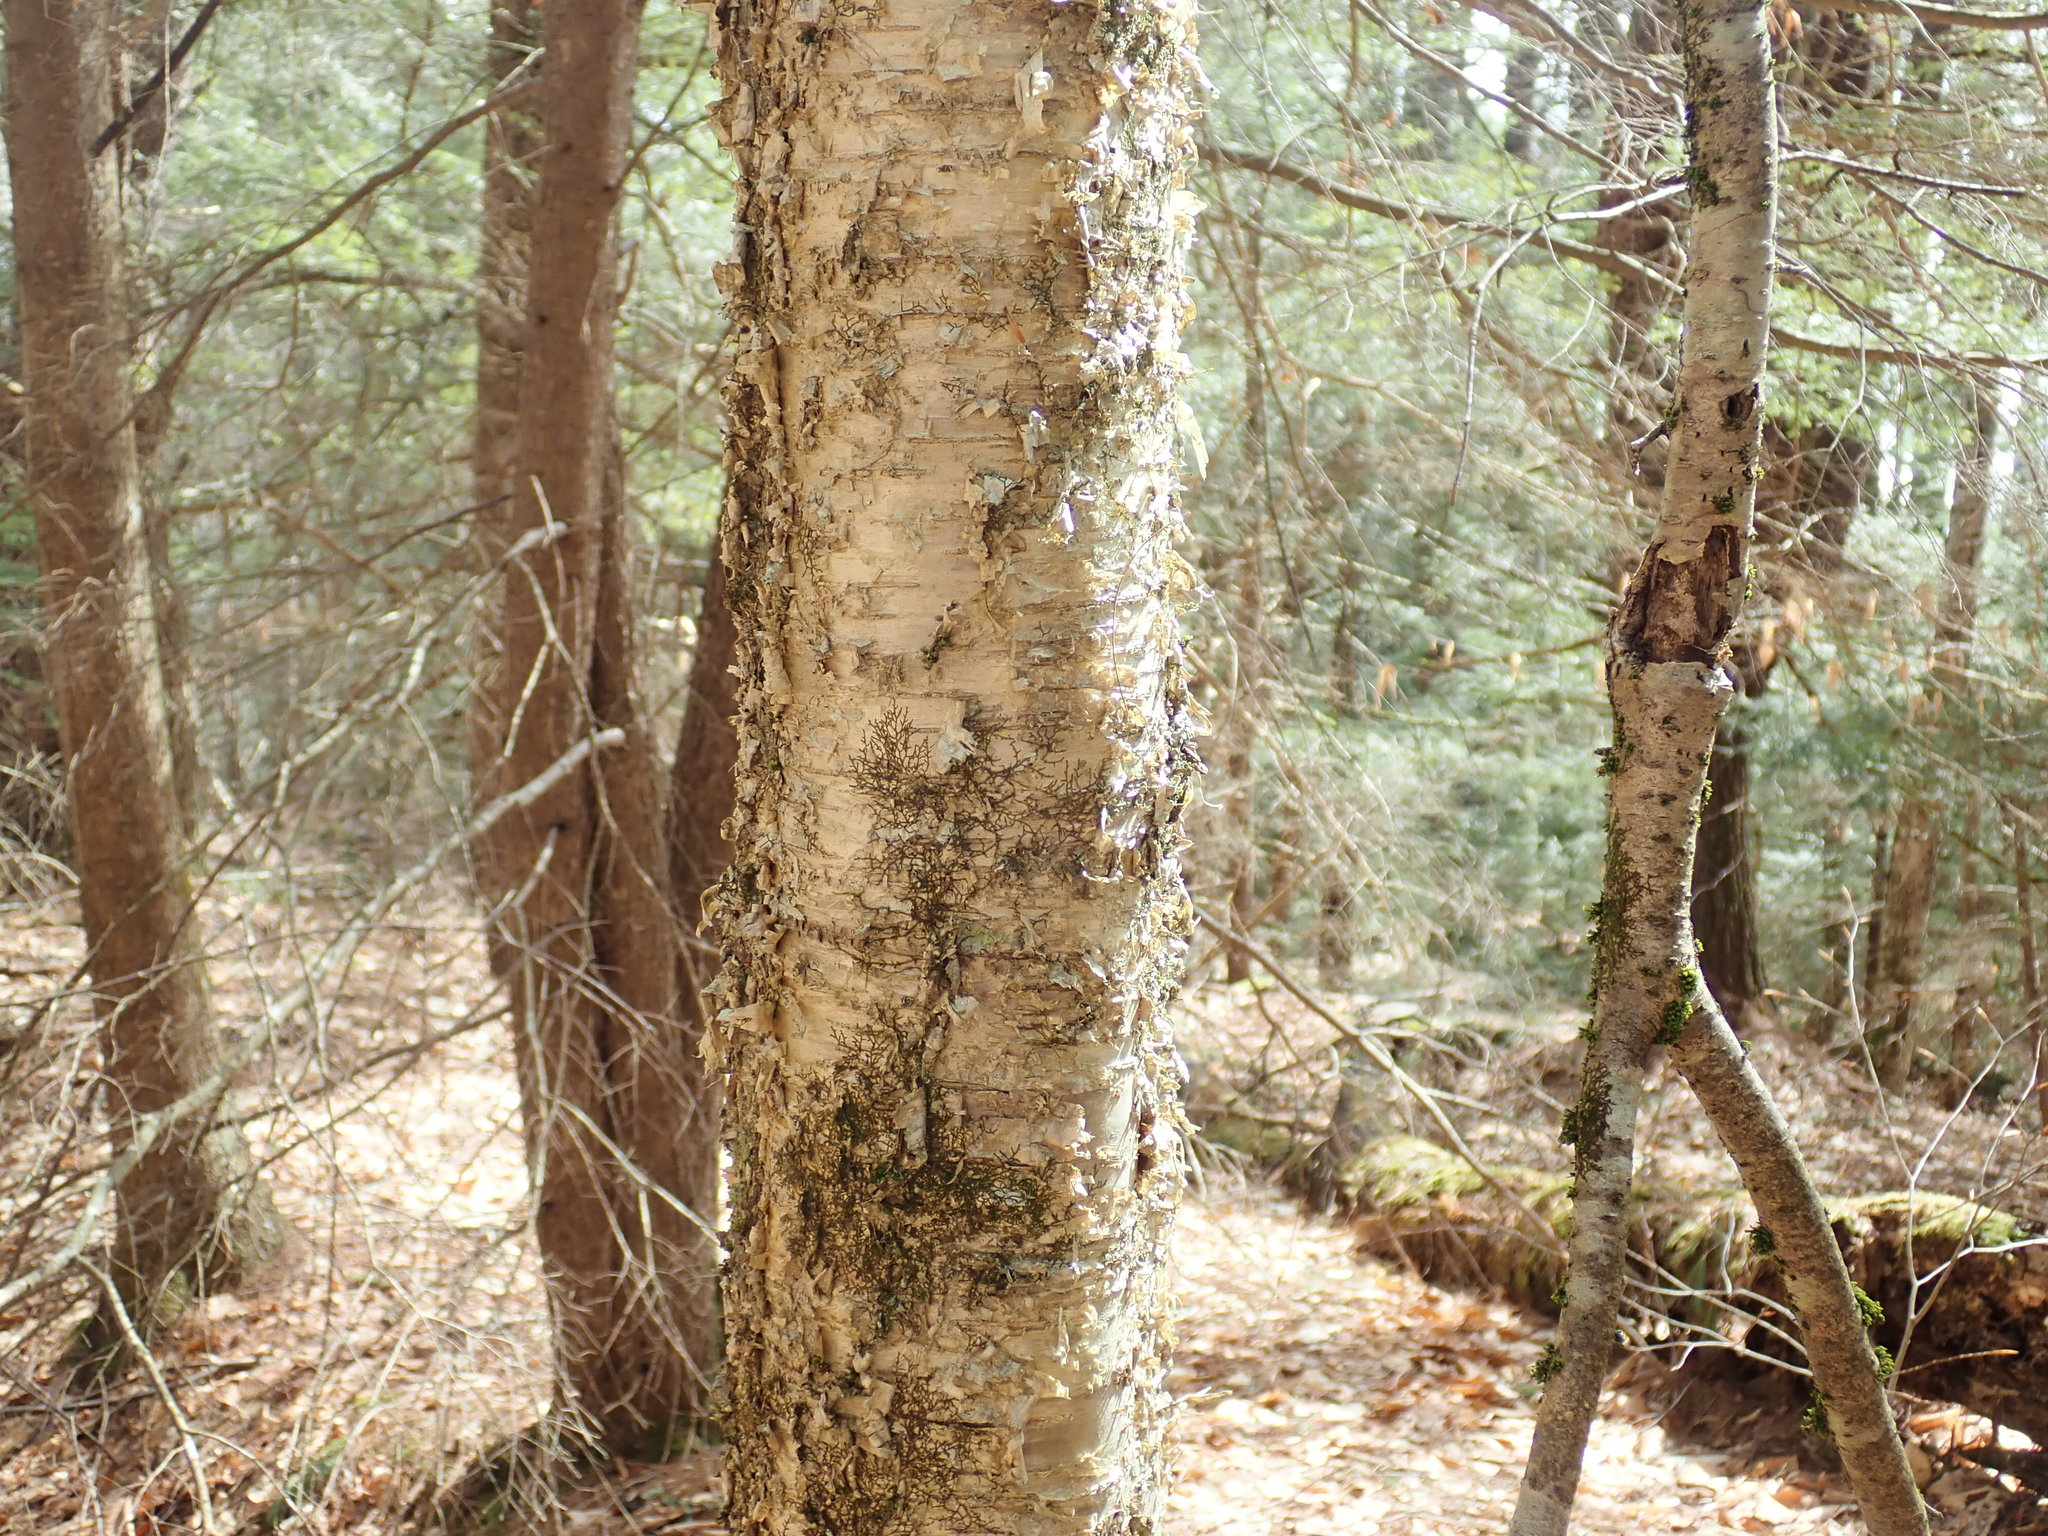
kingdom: Plantae
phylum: Tracheophyta
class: Magnoliopsida
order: Fagales
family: Betulaceae
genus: Betula
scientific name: Betula alleghaniensis
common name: Yellow birch
